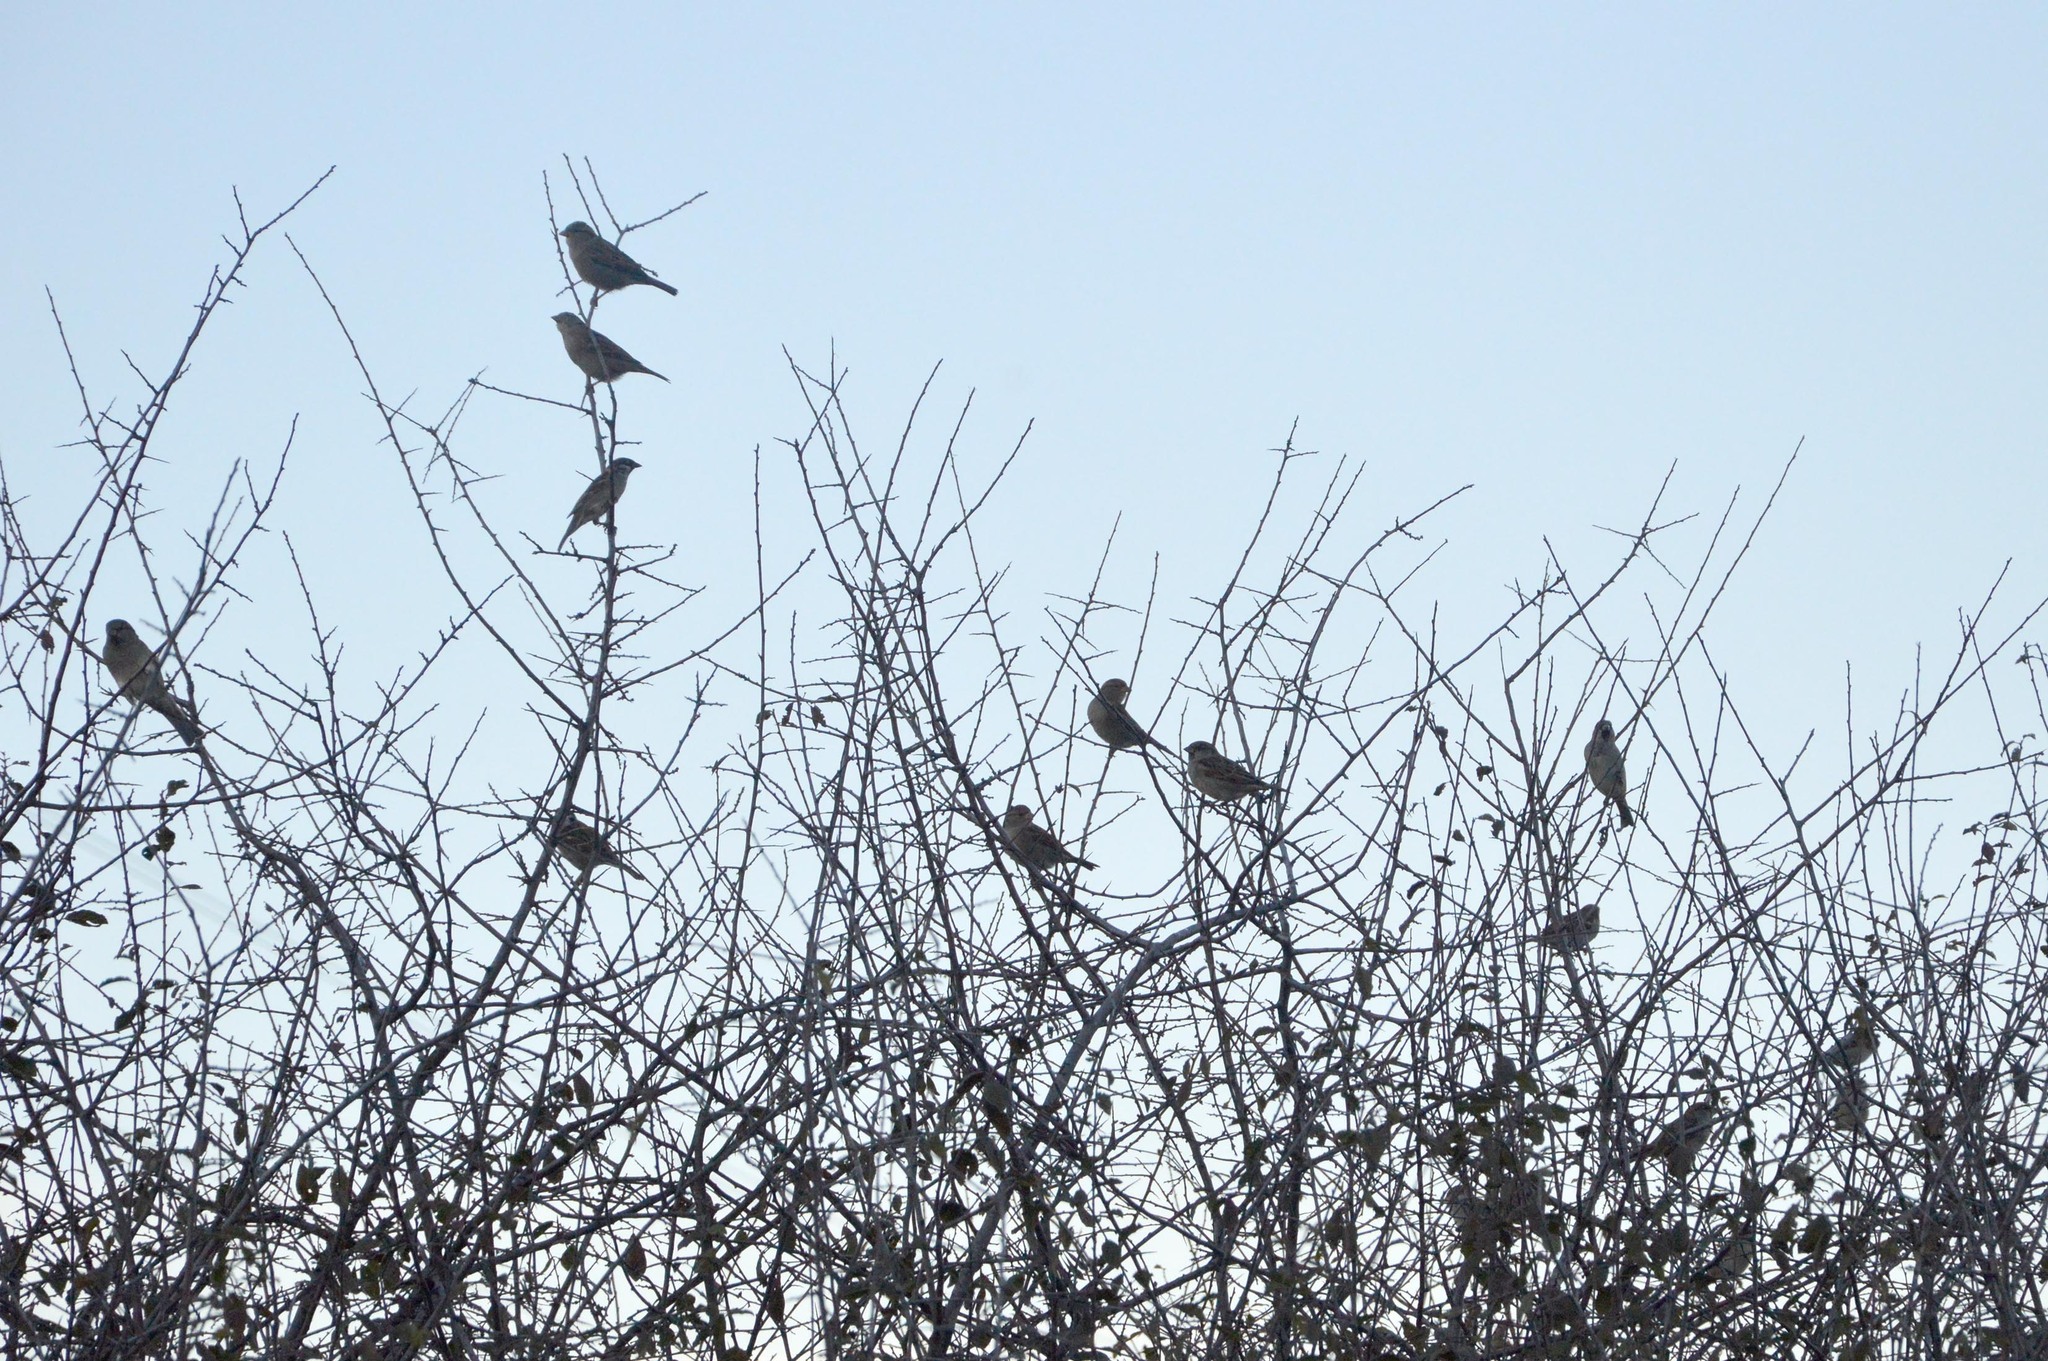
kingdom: Animalia
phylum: Chordata
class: Aves
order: Passeriformes
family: Passeridae
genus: Passer
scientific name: Passer domesticus
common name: House sparrow
